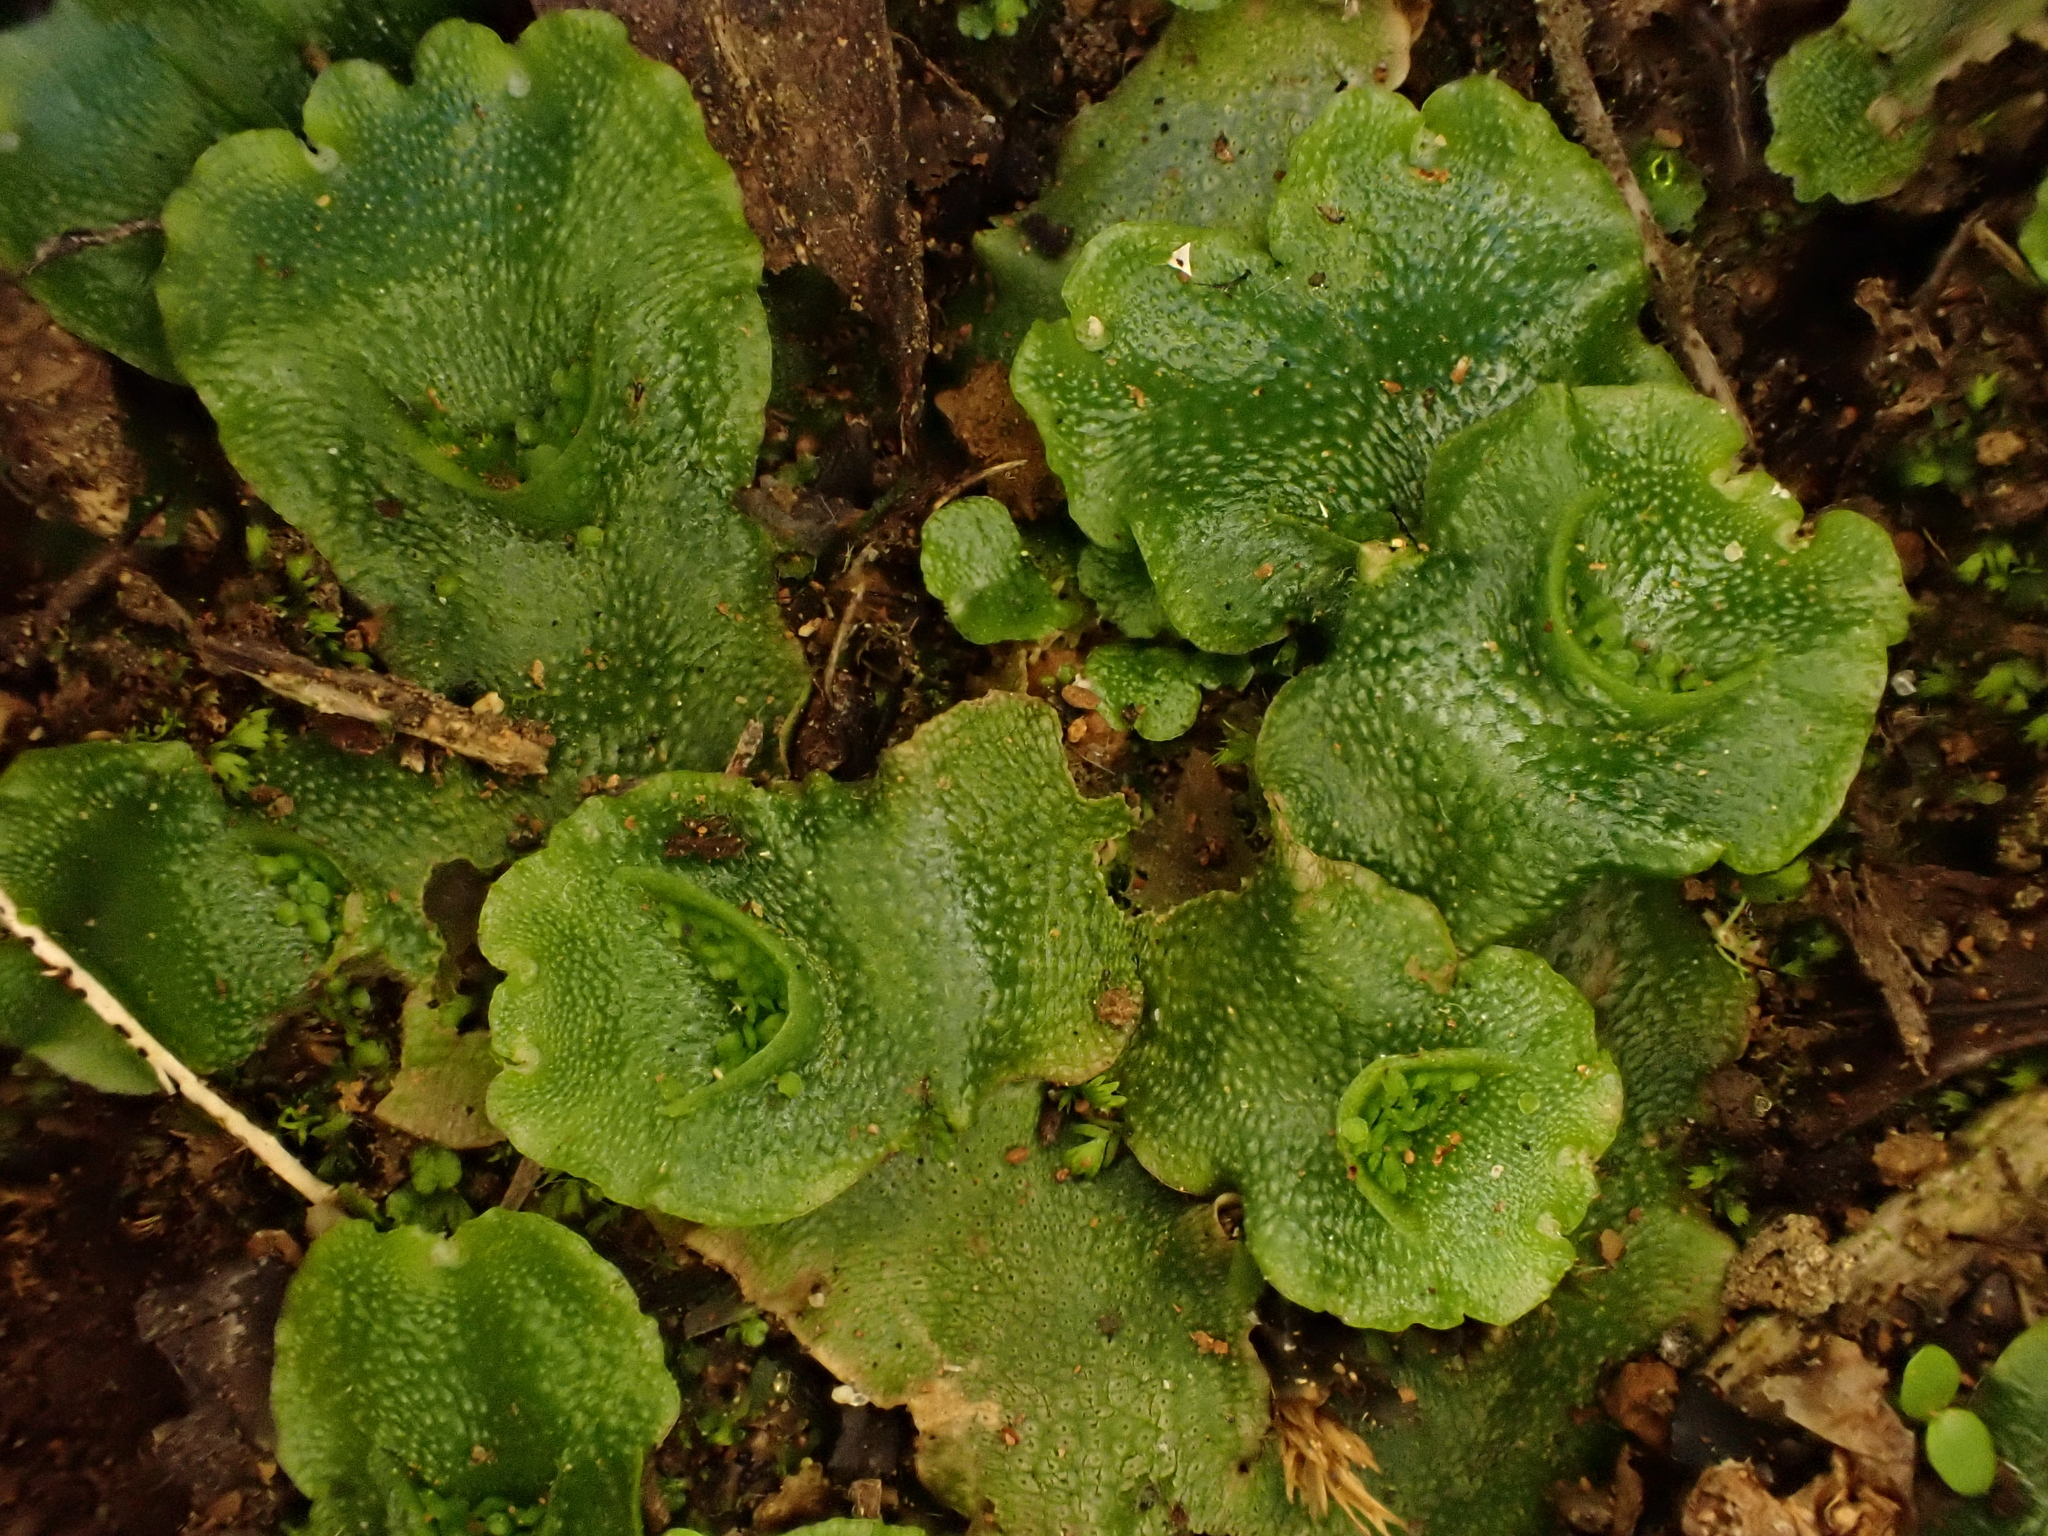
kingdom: Plantae
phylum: Marchantiophyta
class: Marchantiopsida
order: Lunulariales
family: Lunulariaceae
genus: Lunularia
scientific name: Lunularia cruciata
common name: Crescent-cup liverwort
